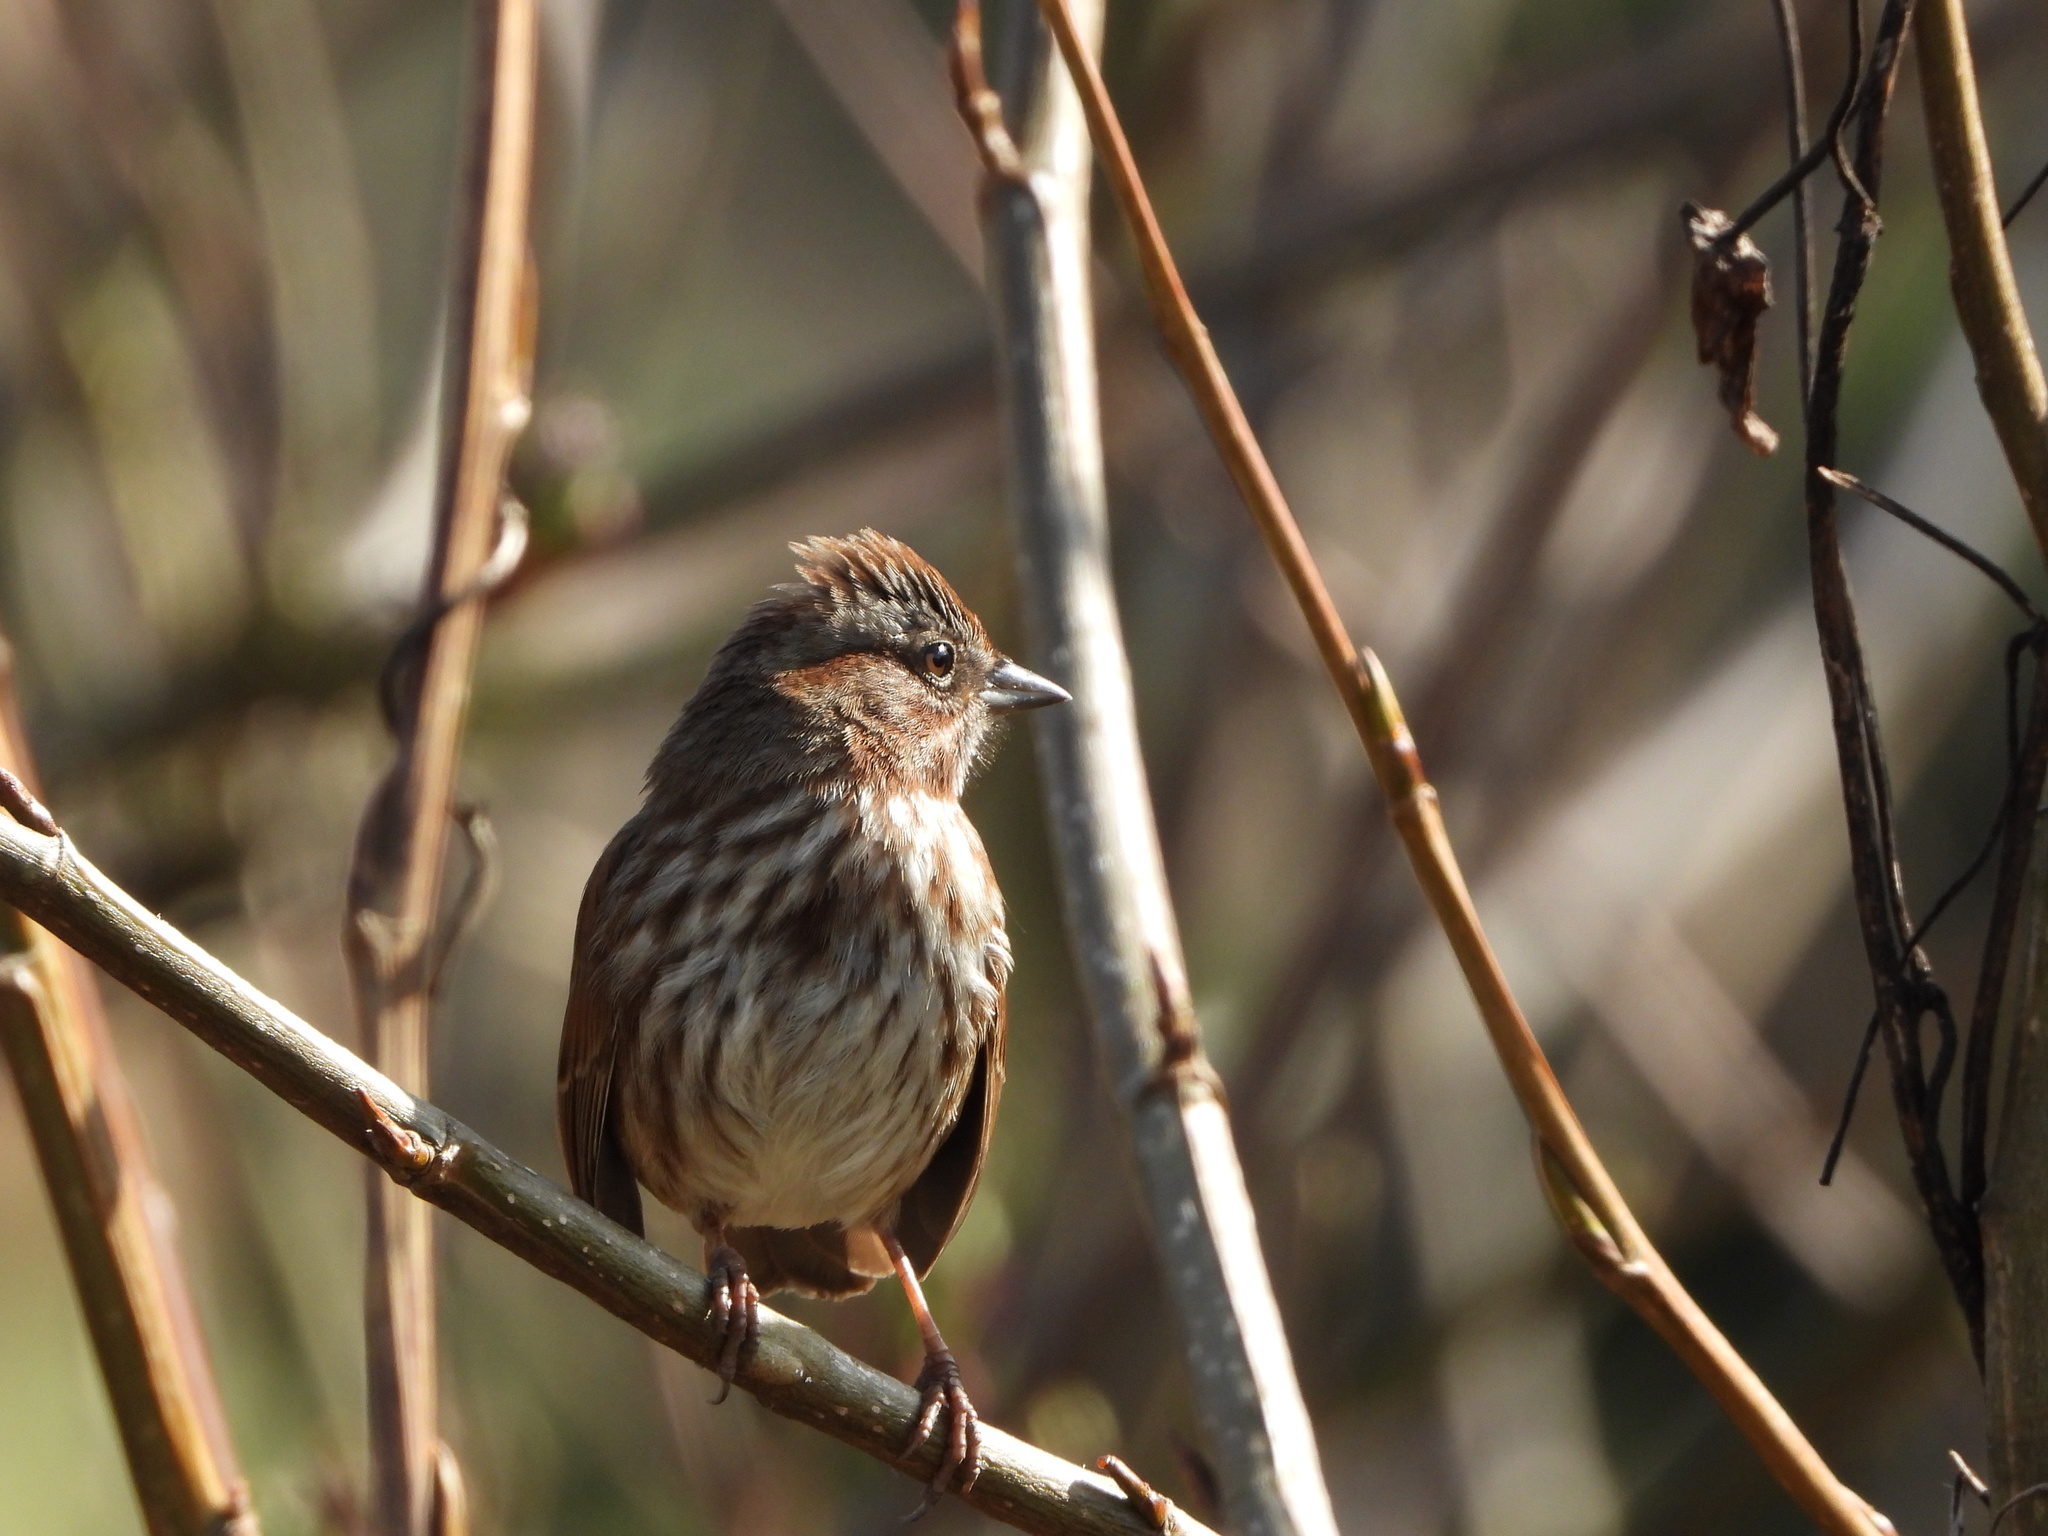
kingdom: Animalia
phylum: Chordata
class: Aves
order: Passeriformes
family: Passerellidae
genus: Melospiza
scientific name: Melospiza melodia
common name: Song sparrow
